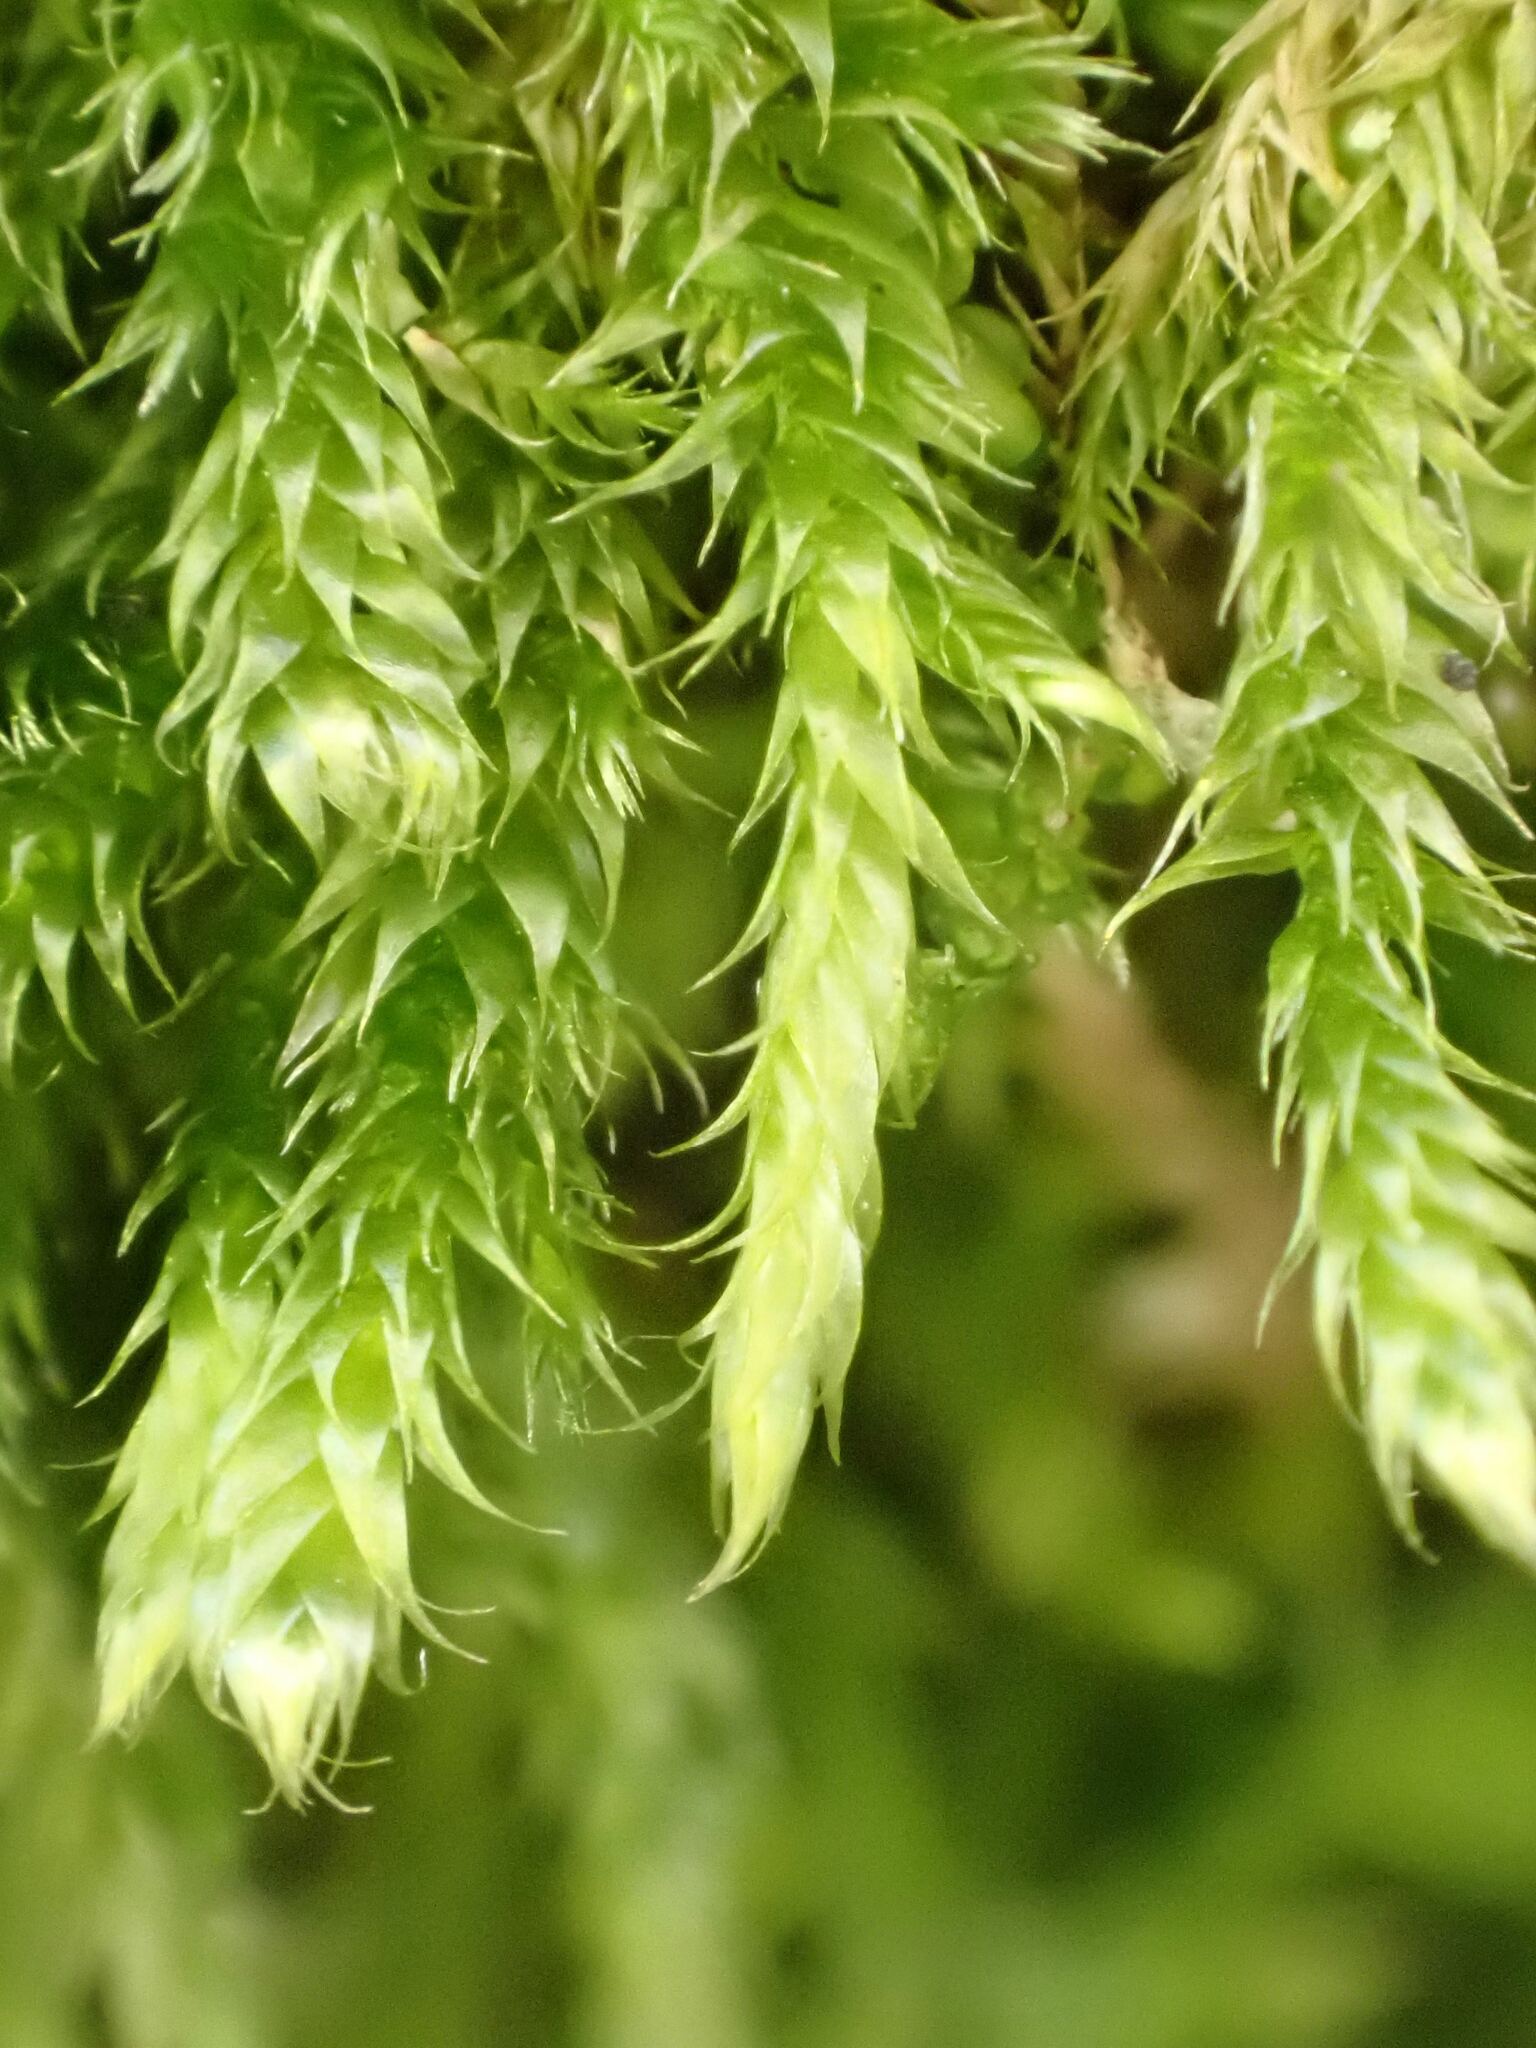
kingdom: Plantae
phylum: Bryophyta
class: Bryopsida
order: Hypnales
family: Hypnaceae
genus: Hypnum
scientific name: Hypnum cupressiforme
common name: Cypress-leaved plait-moss
